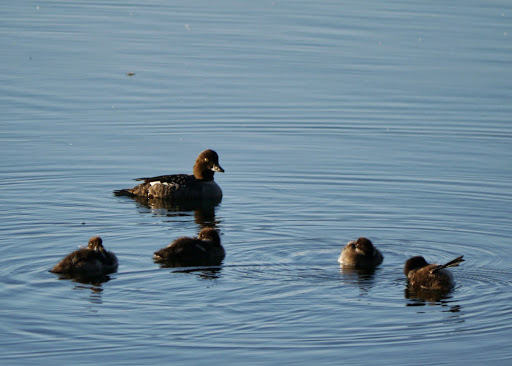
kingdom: Animalia
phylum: Chordata
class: Aves
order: Anseriformes
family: Anatidae
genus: Bucephala
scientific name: Bucephala clangula
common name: Common goldeneye
